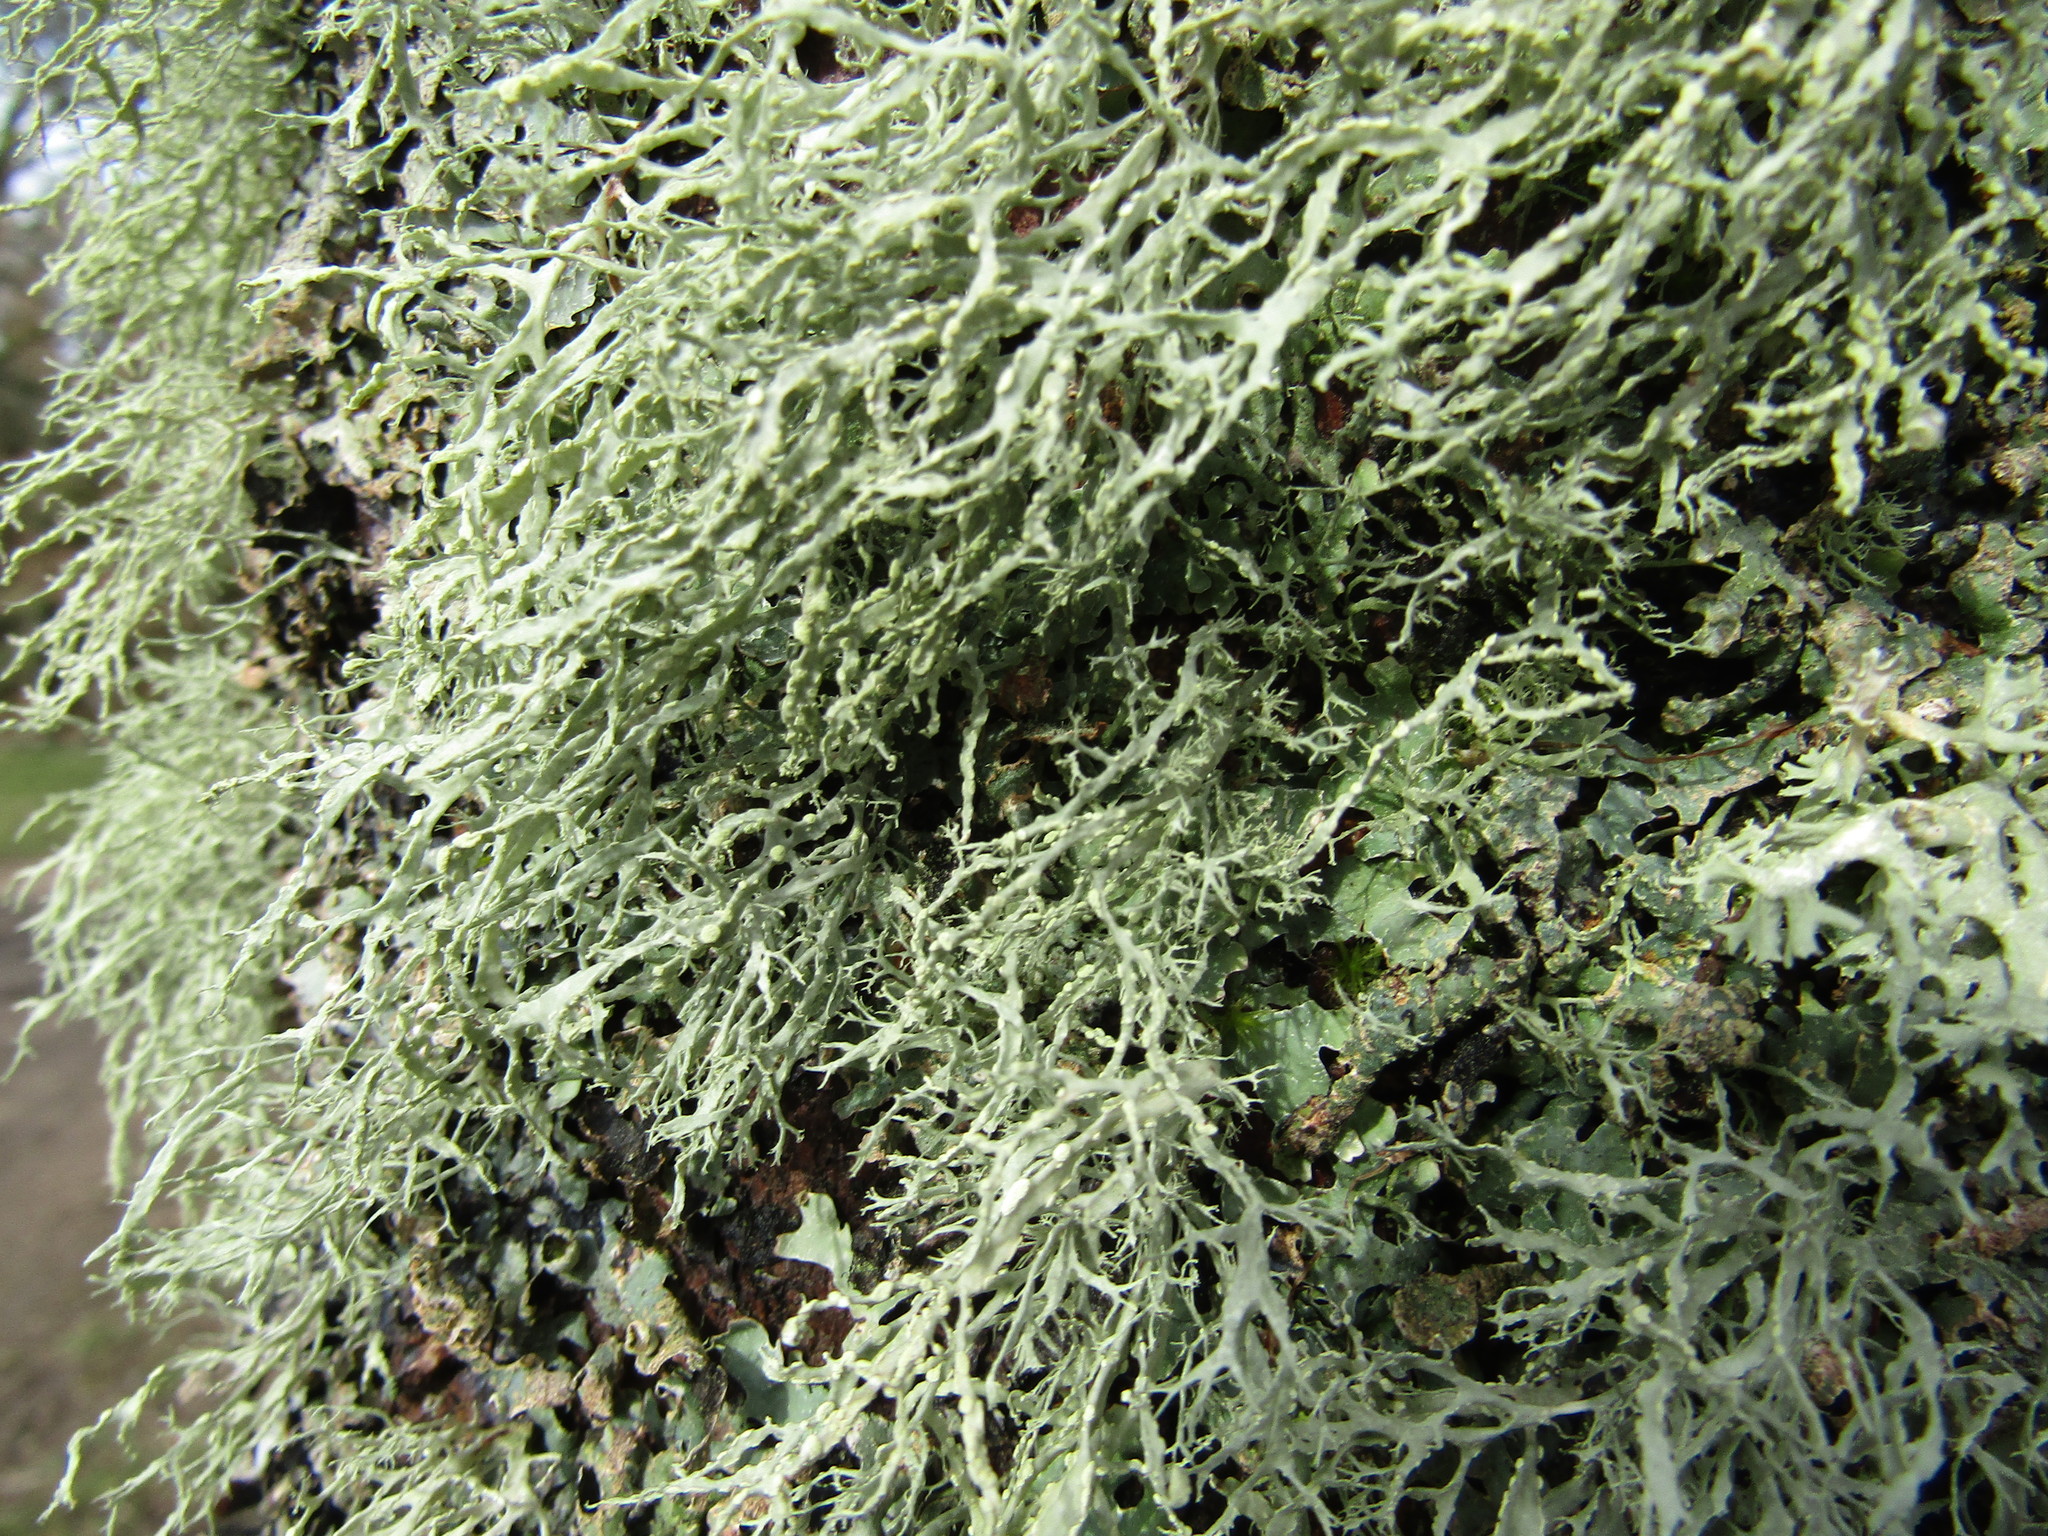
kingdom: Fungi
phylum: Ascomycota
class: Lecanoromycetes
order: Lecanorales
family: Ramalinaceae
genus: Ramalina
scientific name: Ramalina farinacea
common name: Farinose cartilage lichen
